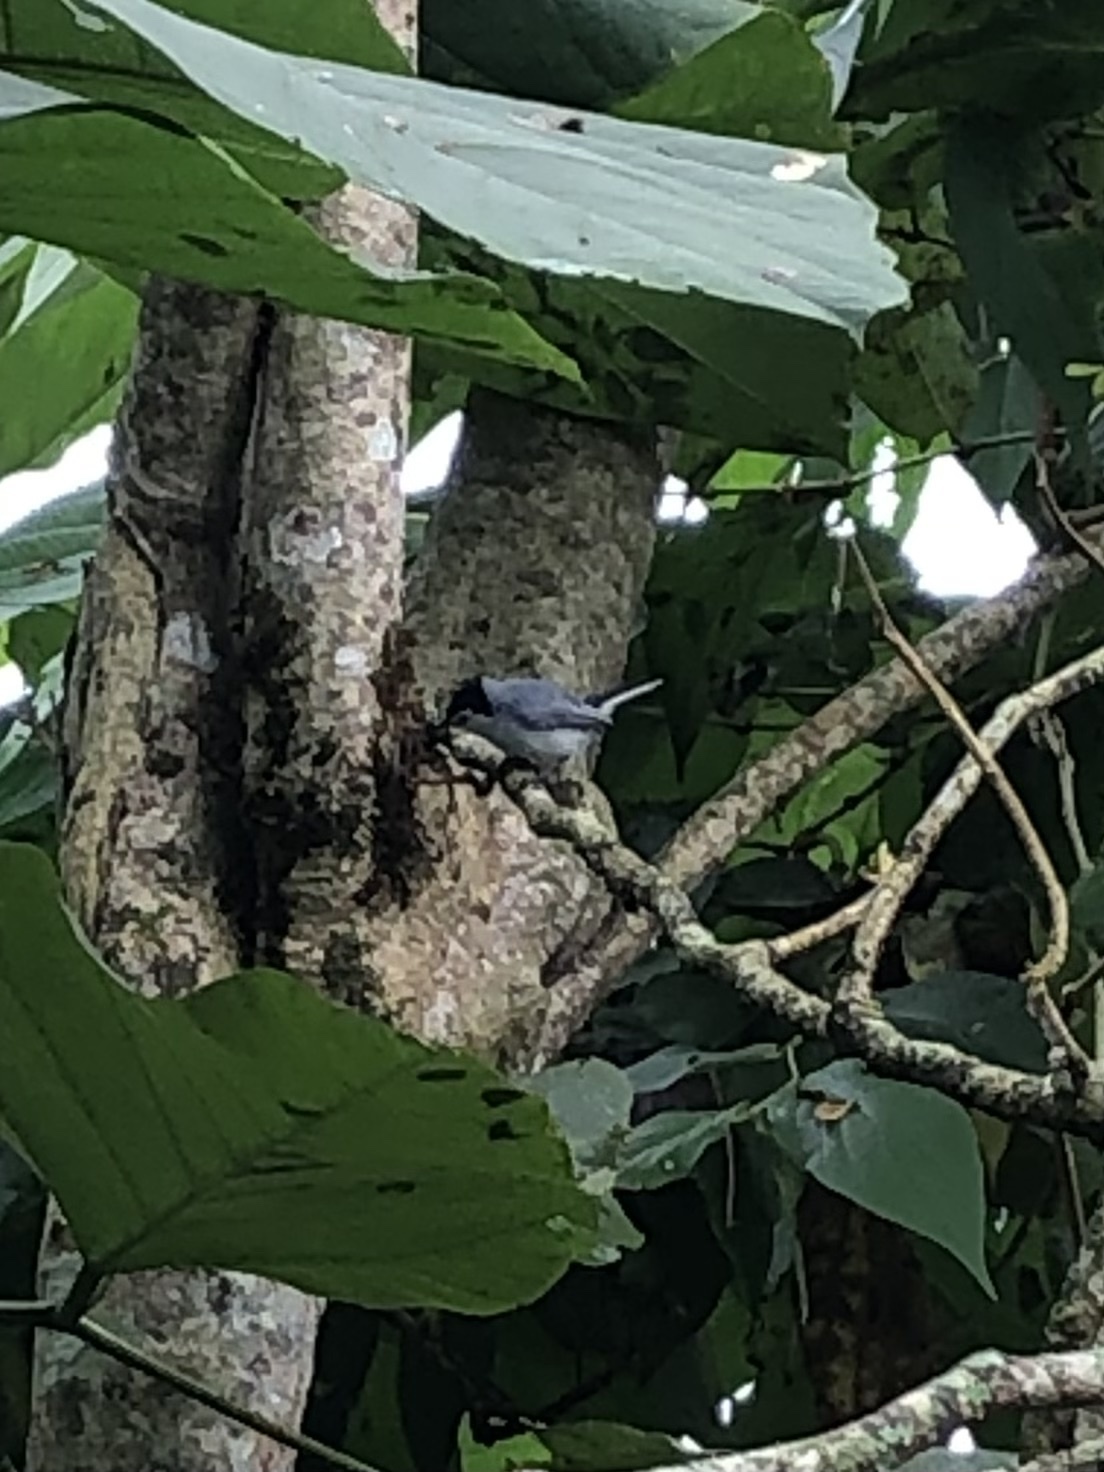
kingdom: Animalia
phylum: Chordata
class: Aves
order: Passeriformes
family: Polioptilidae
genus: Polioptila
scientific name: Polioptila plumbea
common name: Tropical gnatcatcher
